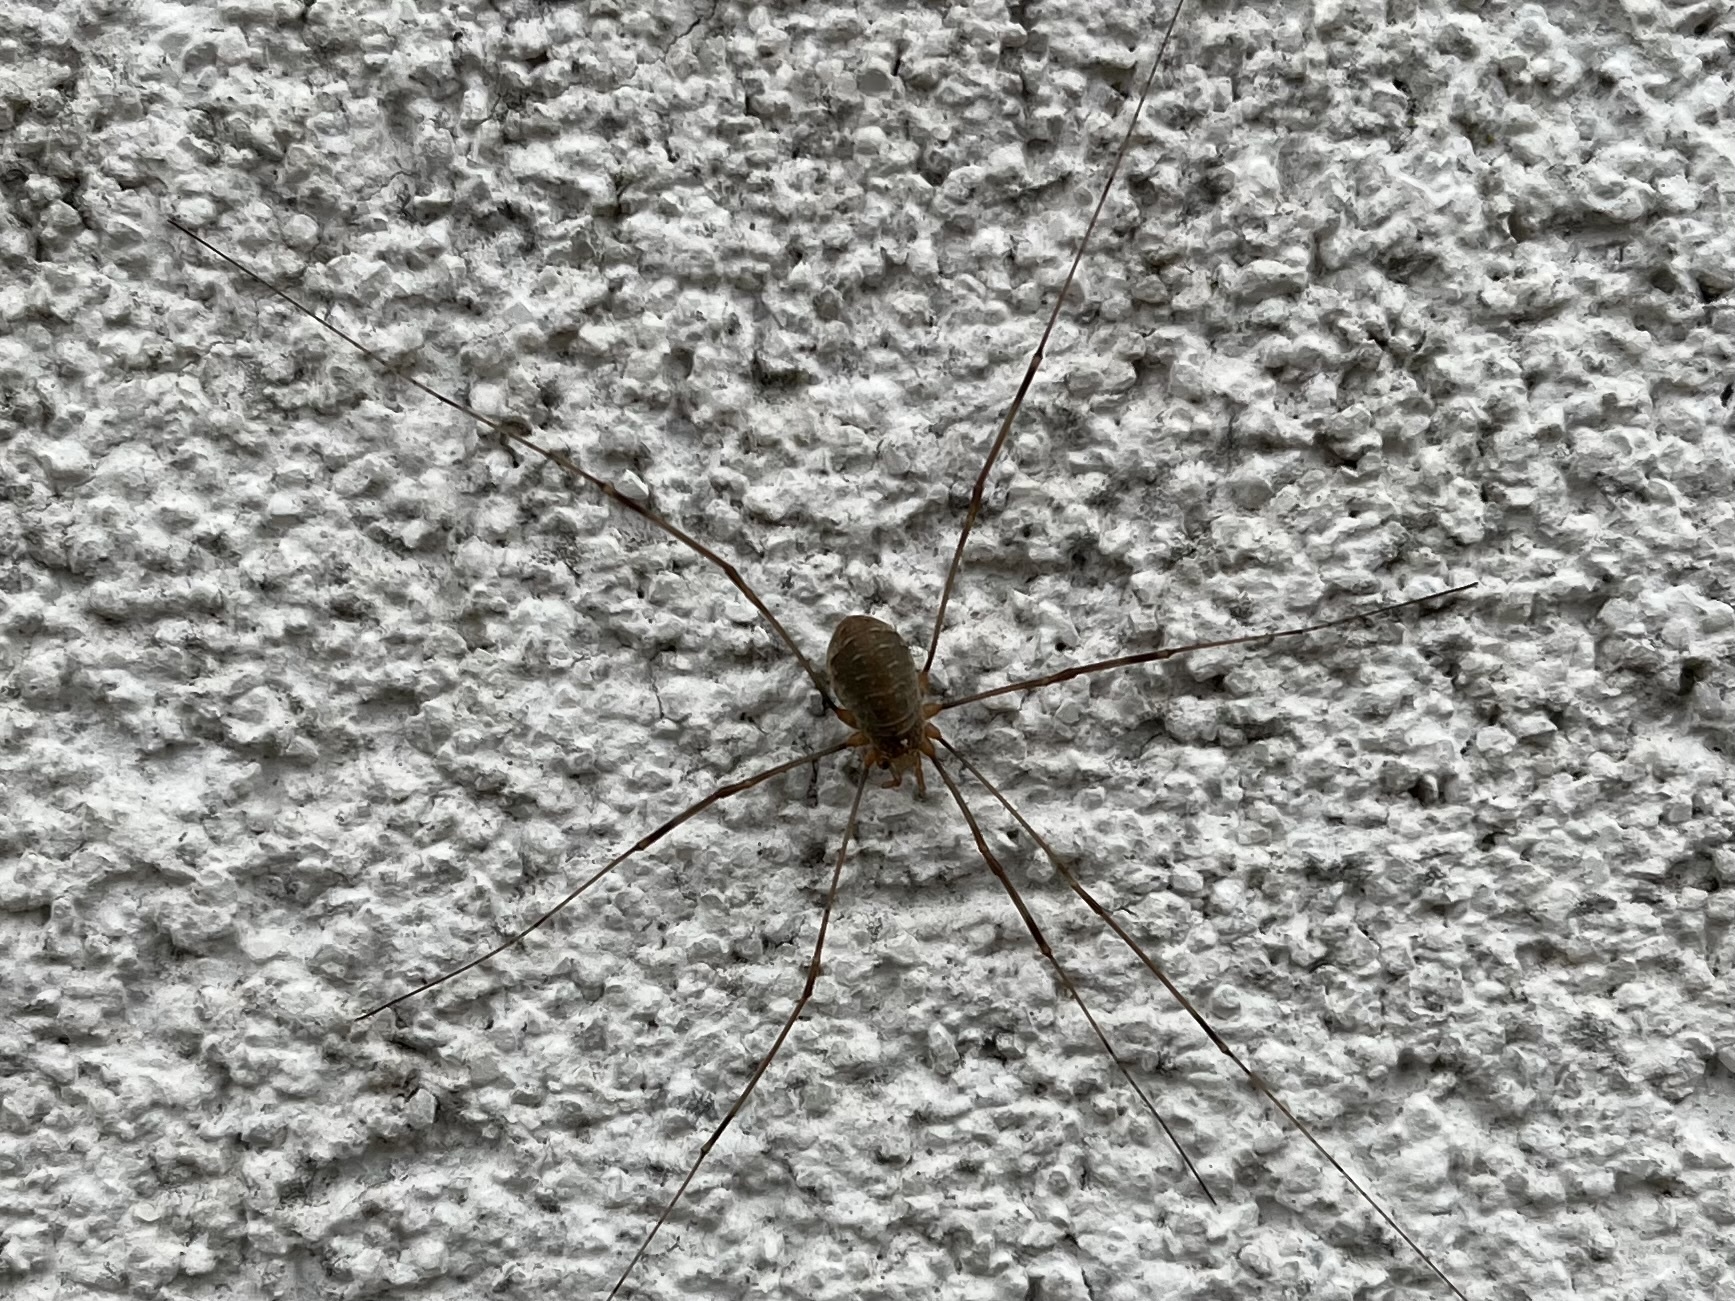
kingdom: Animalia
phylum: Arthropoda
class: Arachnida
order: Opiliones
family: Phalangiidae
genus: Opilio
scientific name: Opilio canestrinii
